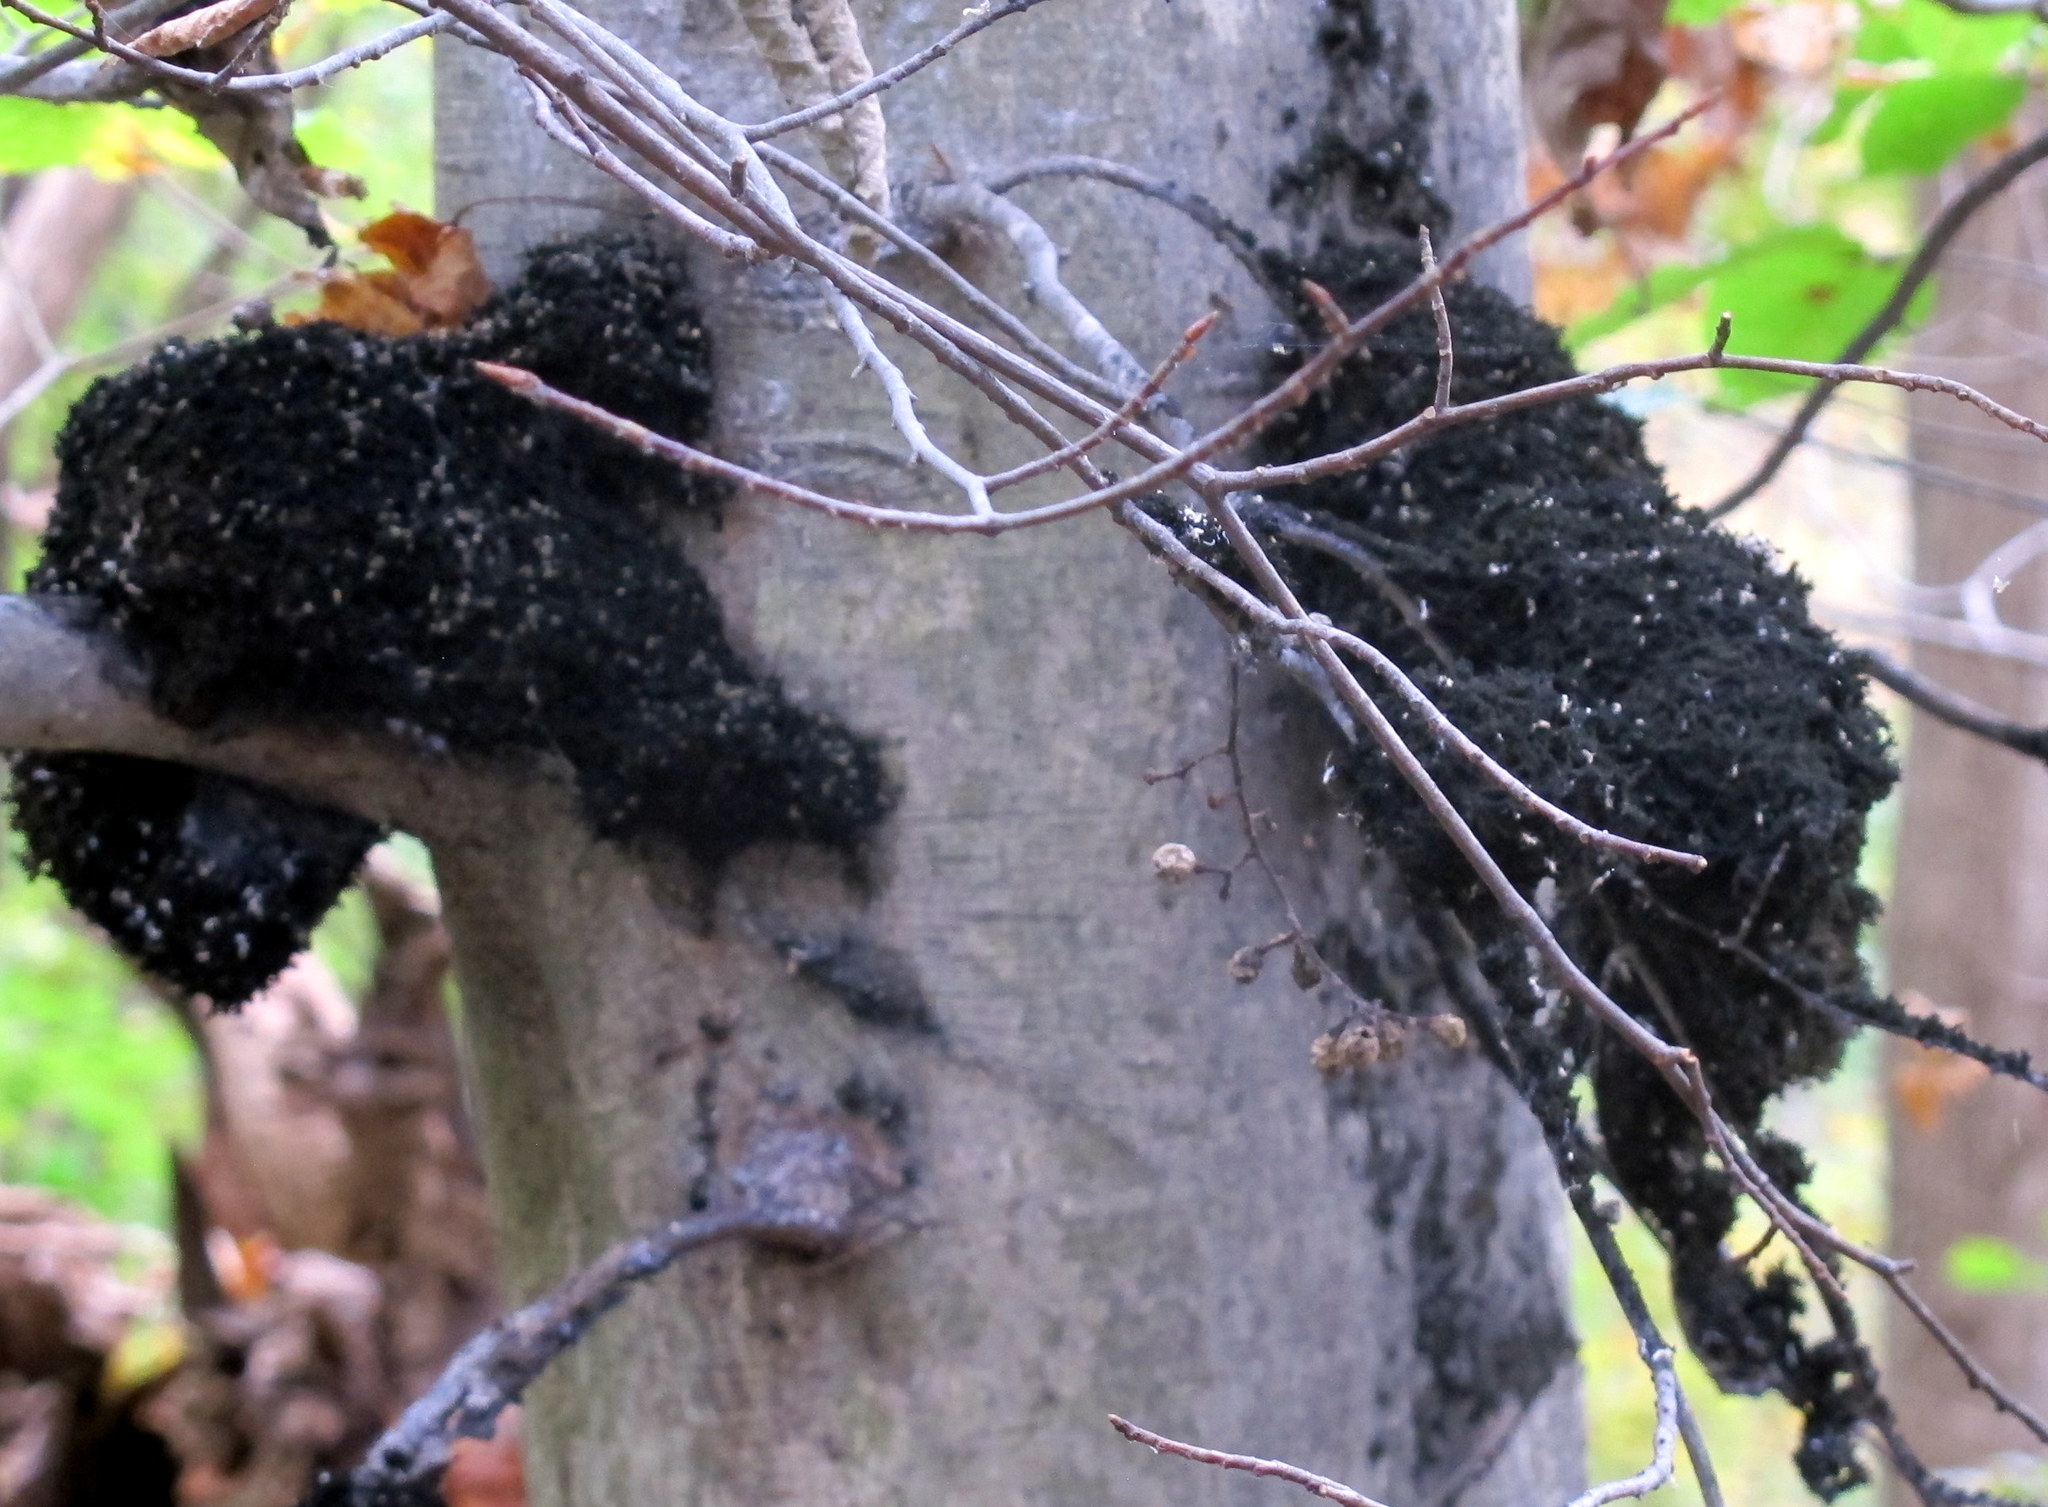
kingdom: Fungi
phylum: Ascomycota
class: Dothideomycetes
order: Capnodiales
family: Capnodiaceae
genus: Scorias
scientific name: Scorias spongiosa
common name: Black sooty mold
